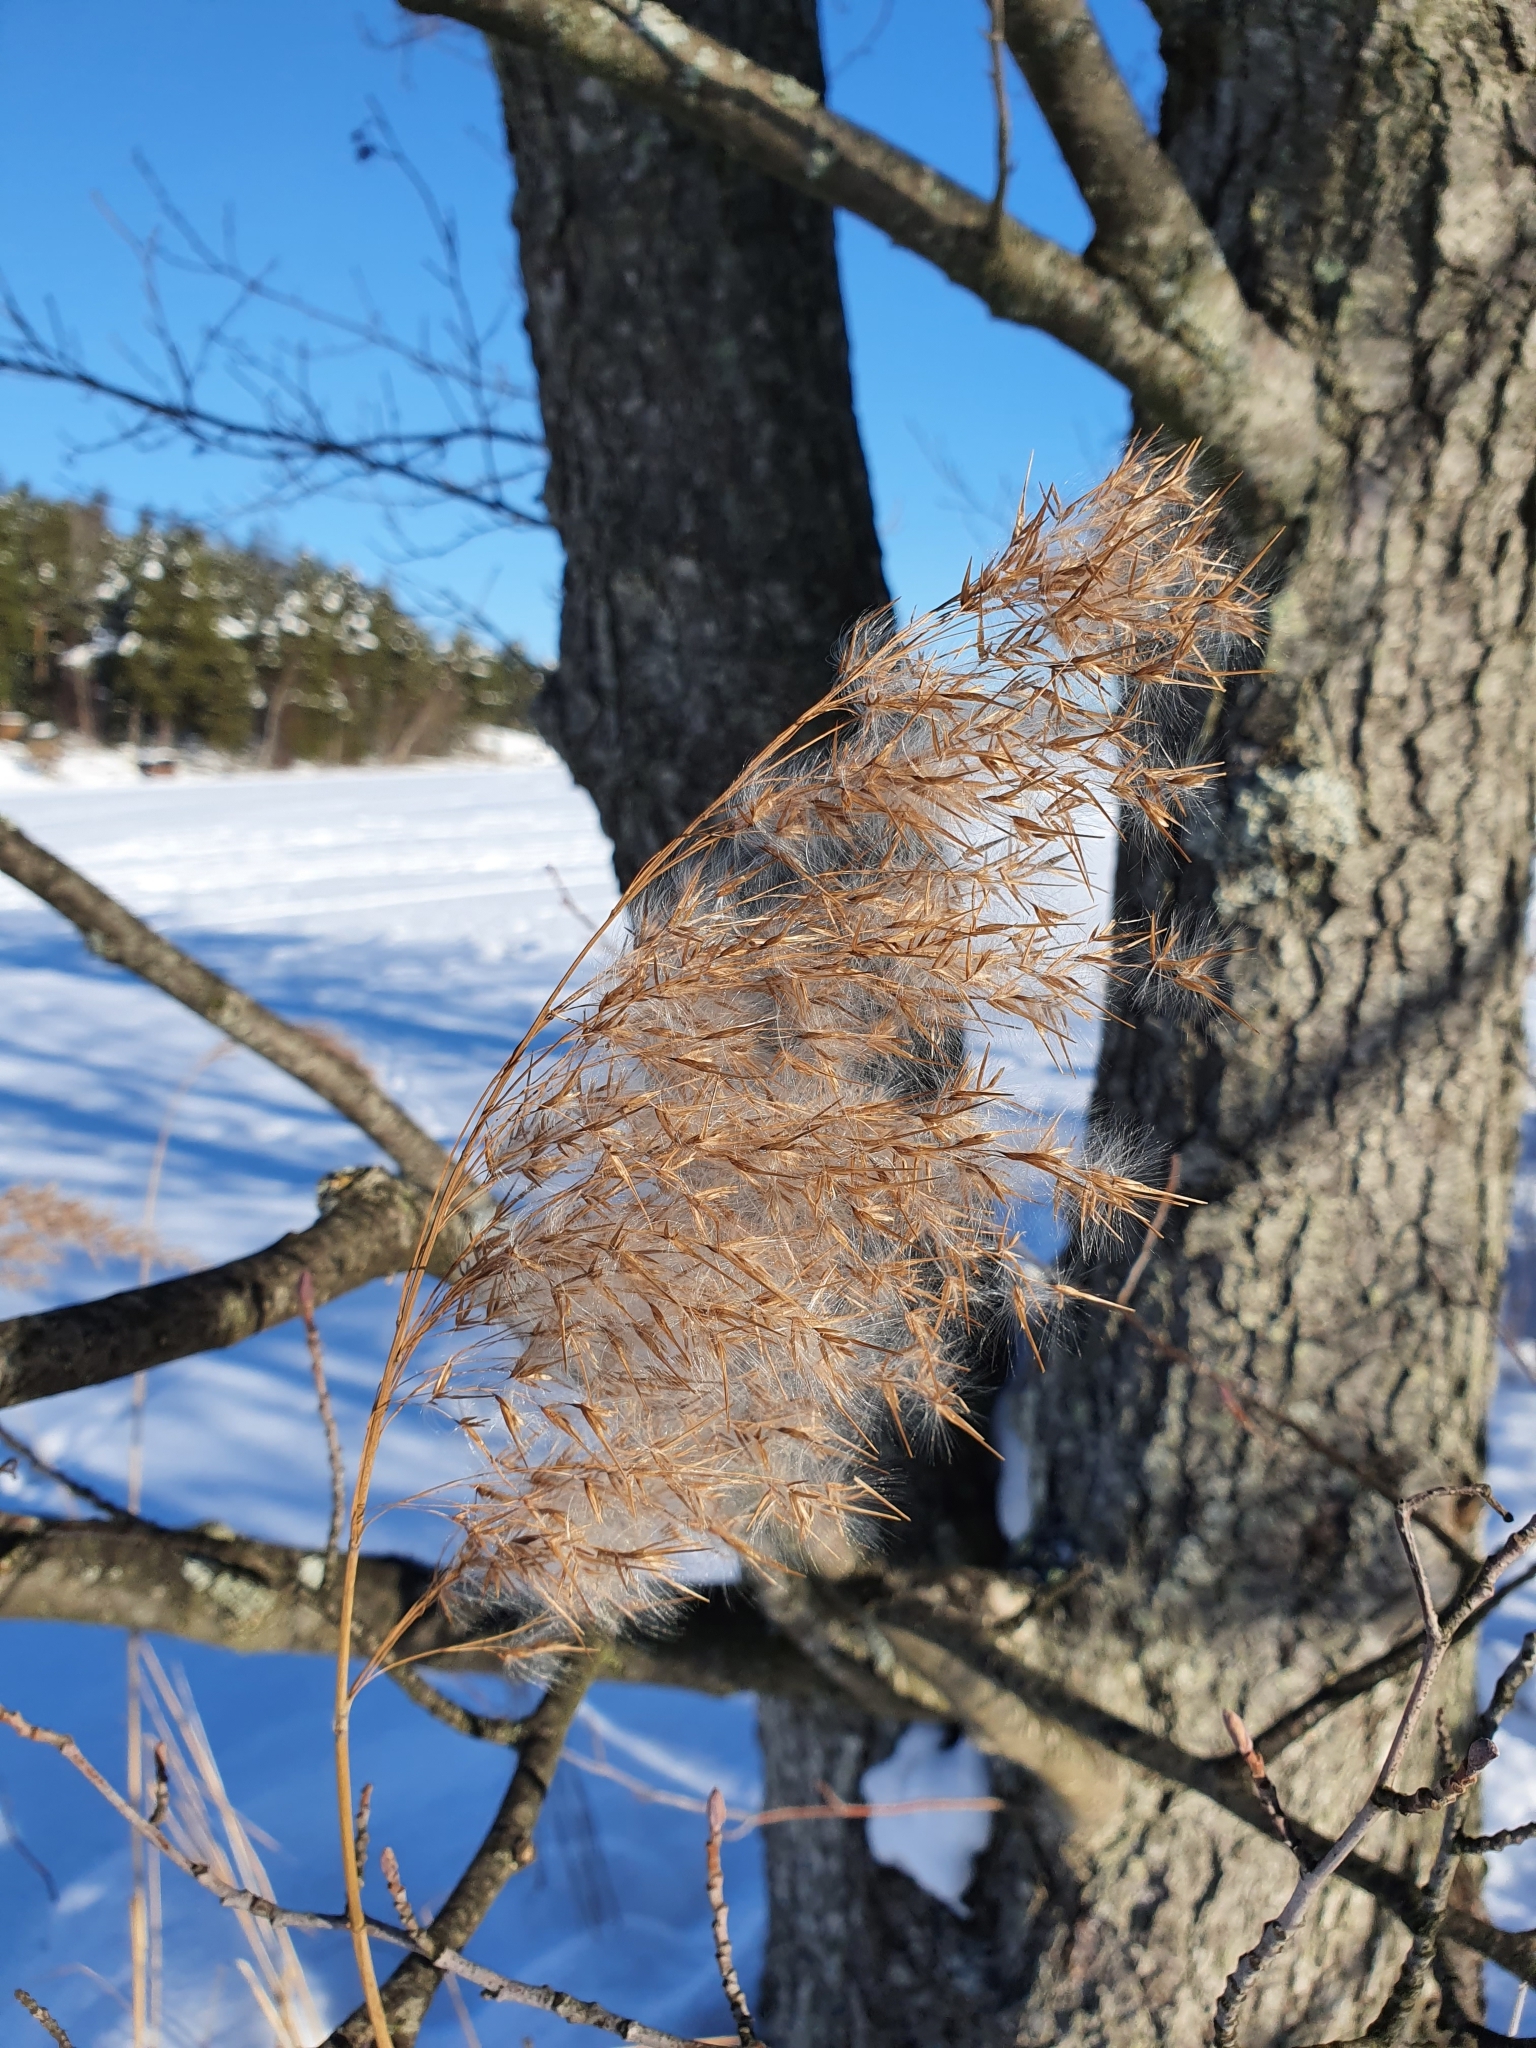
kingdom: Plantae
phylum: Tracheophyta
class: Liliopsida
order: Poales
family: Poaceae
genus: Phragmites
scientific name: Phragmites australis
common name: Common reed
